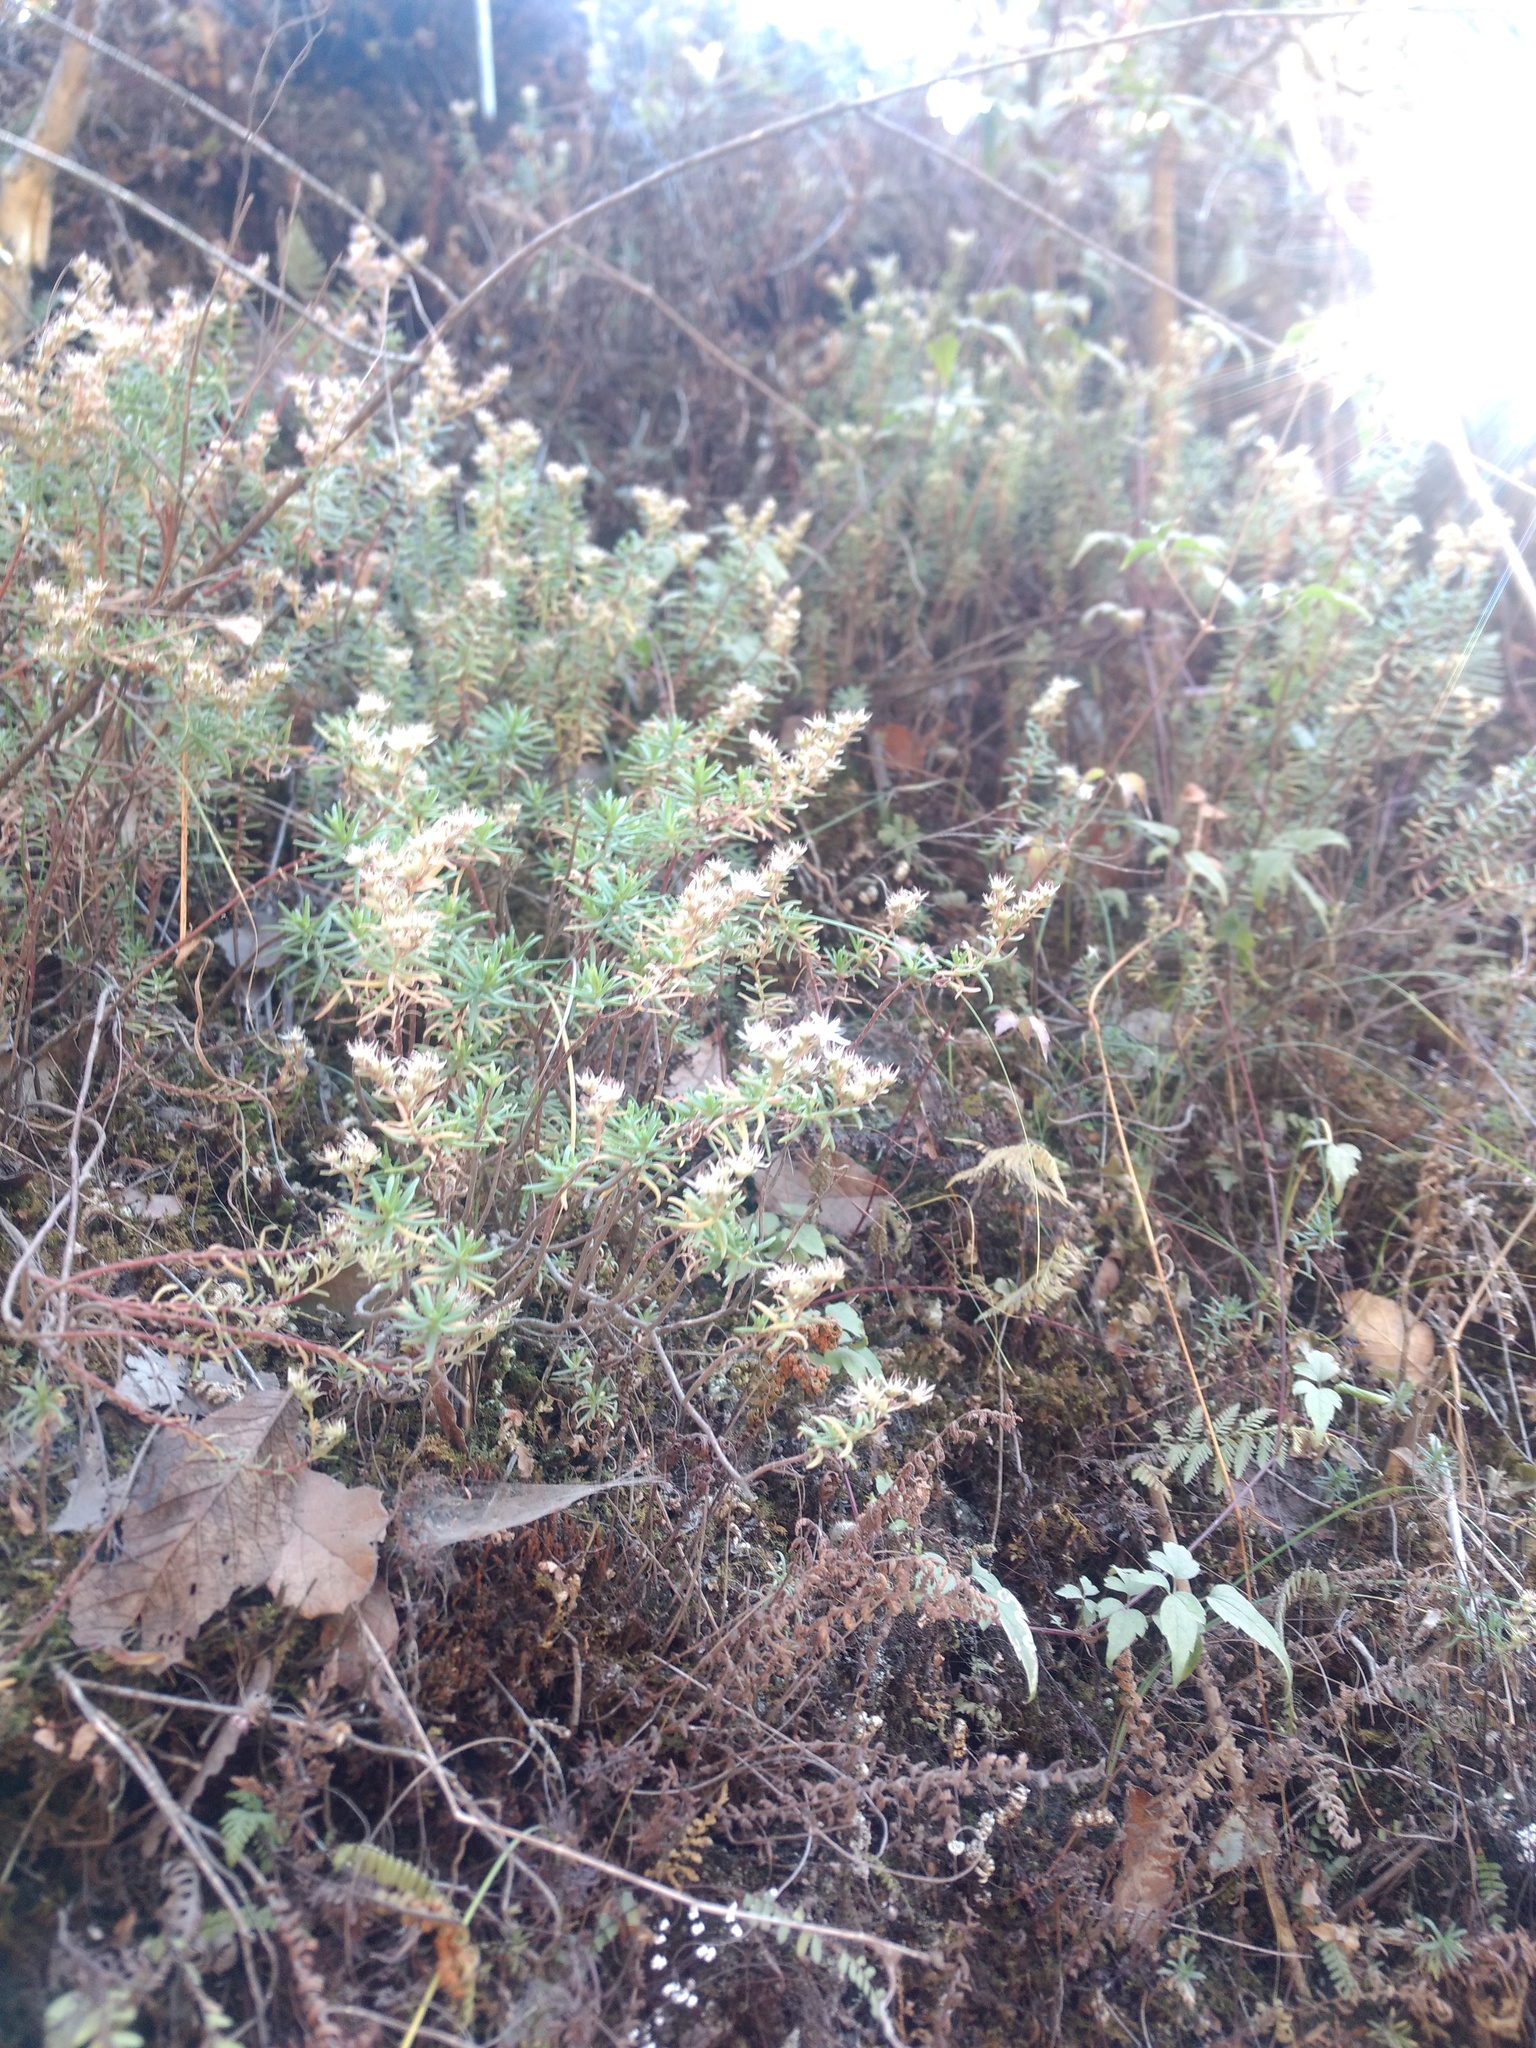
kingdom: Plantae
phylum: Tracheophyta
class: Magnoliopsida
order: Saxifragales
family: Crassulaceae
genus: Sedum
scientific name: Sedum goldmanii
